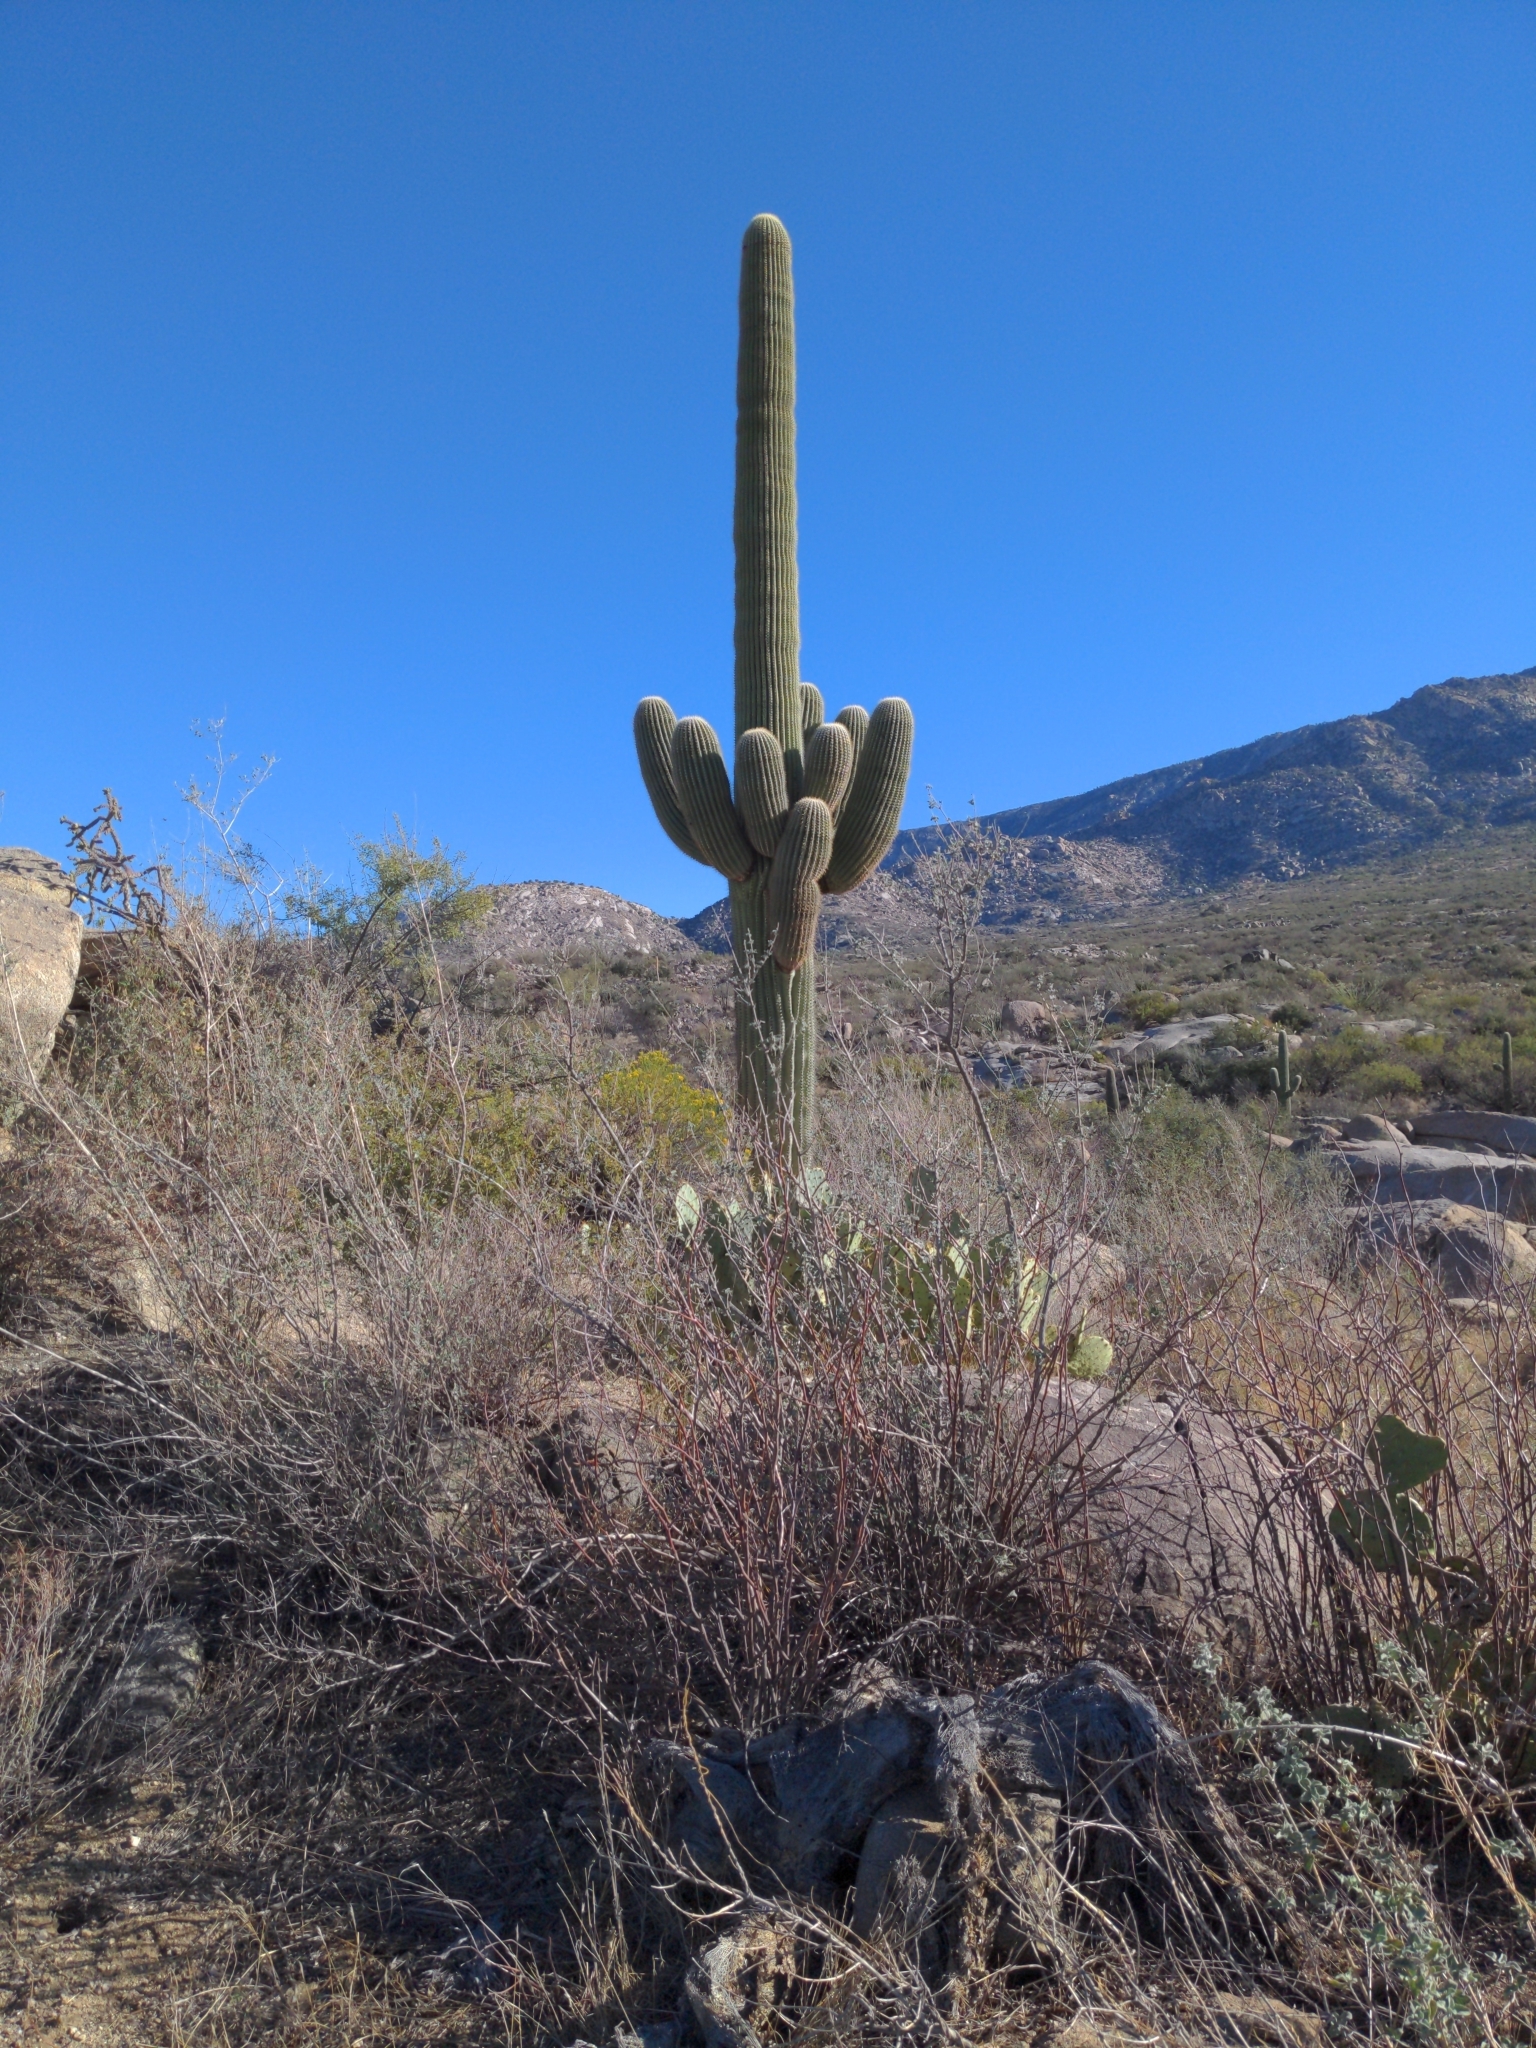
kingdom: Plantae
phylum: Tracheophyta
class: Magnoliopsida
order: Caryophyllales
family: Cactaceae
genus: Carnegiea
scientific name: Carnegiea gigantea
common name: Saguaro
